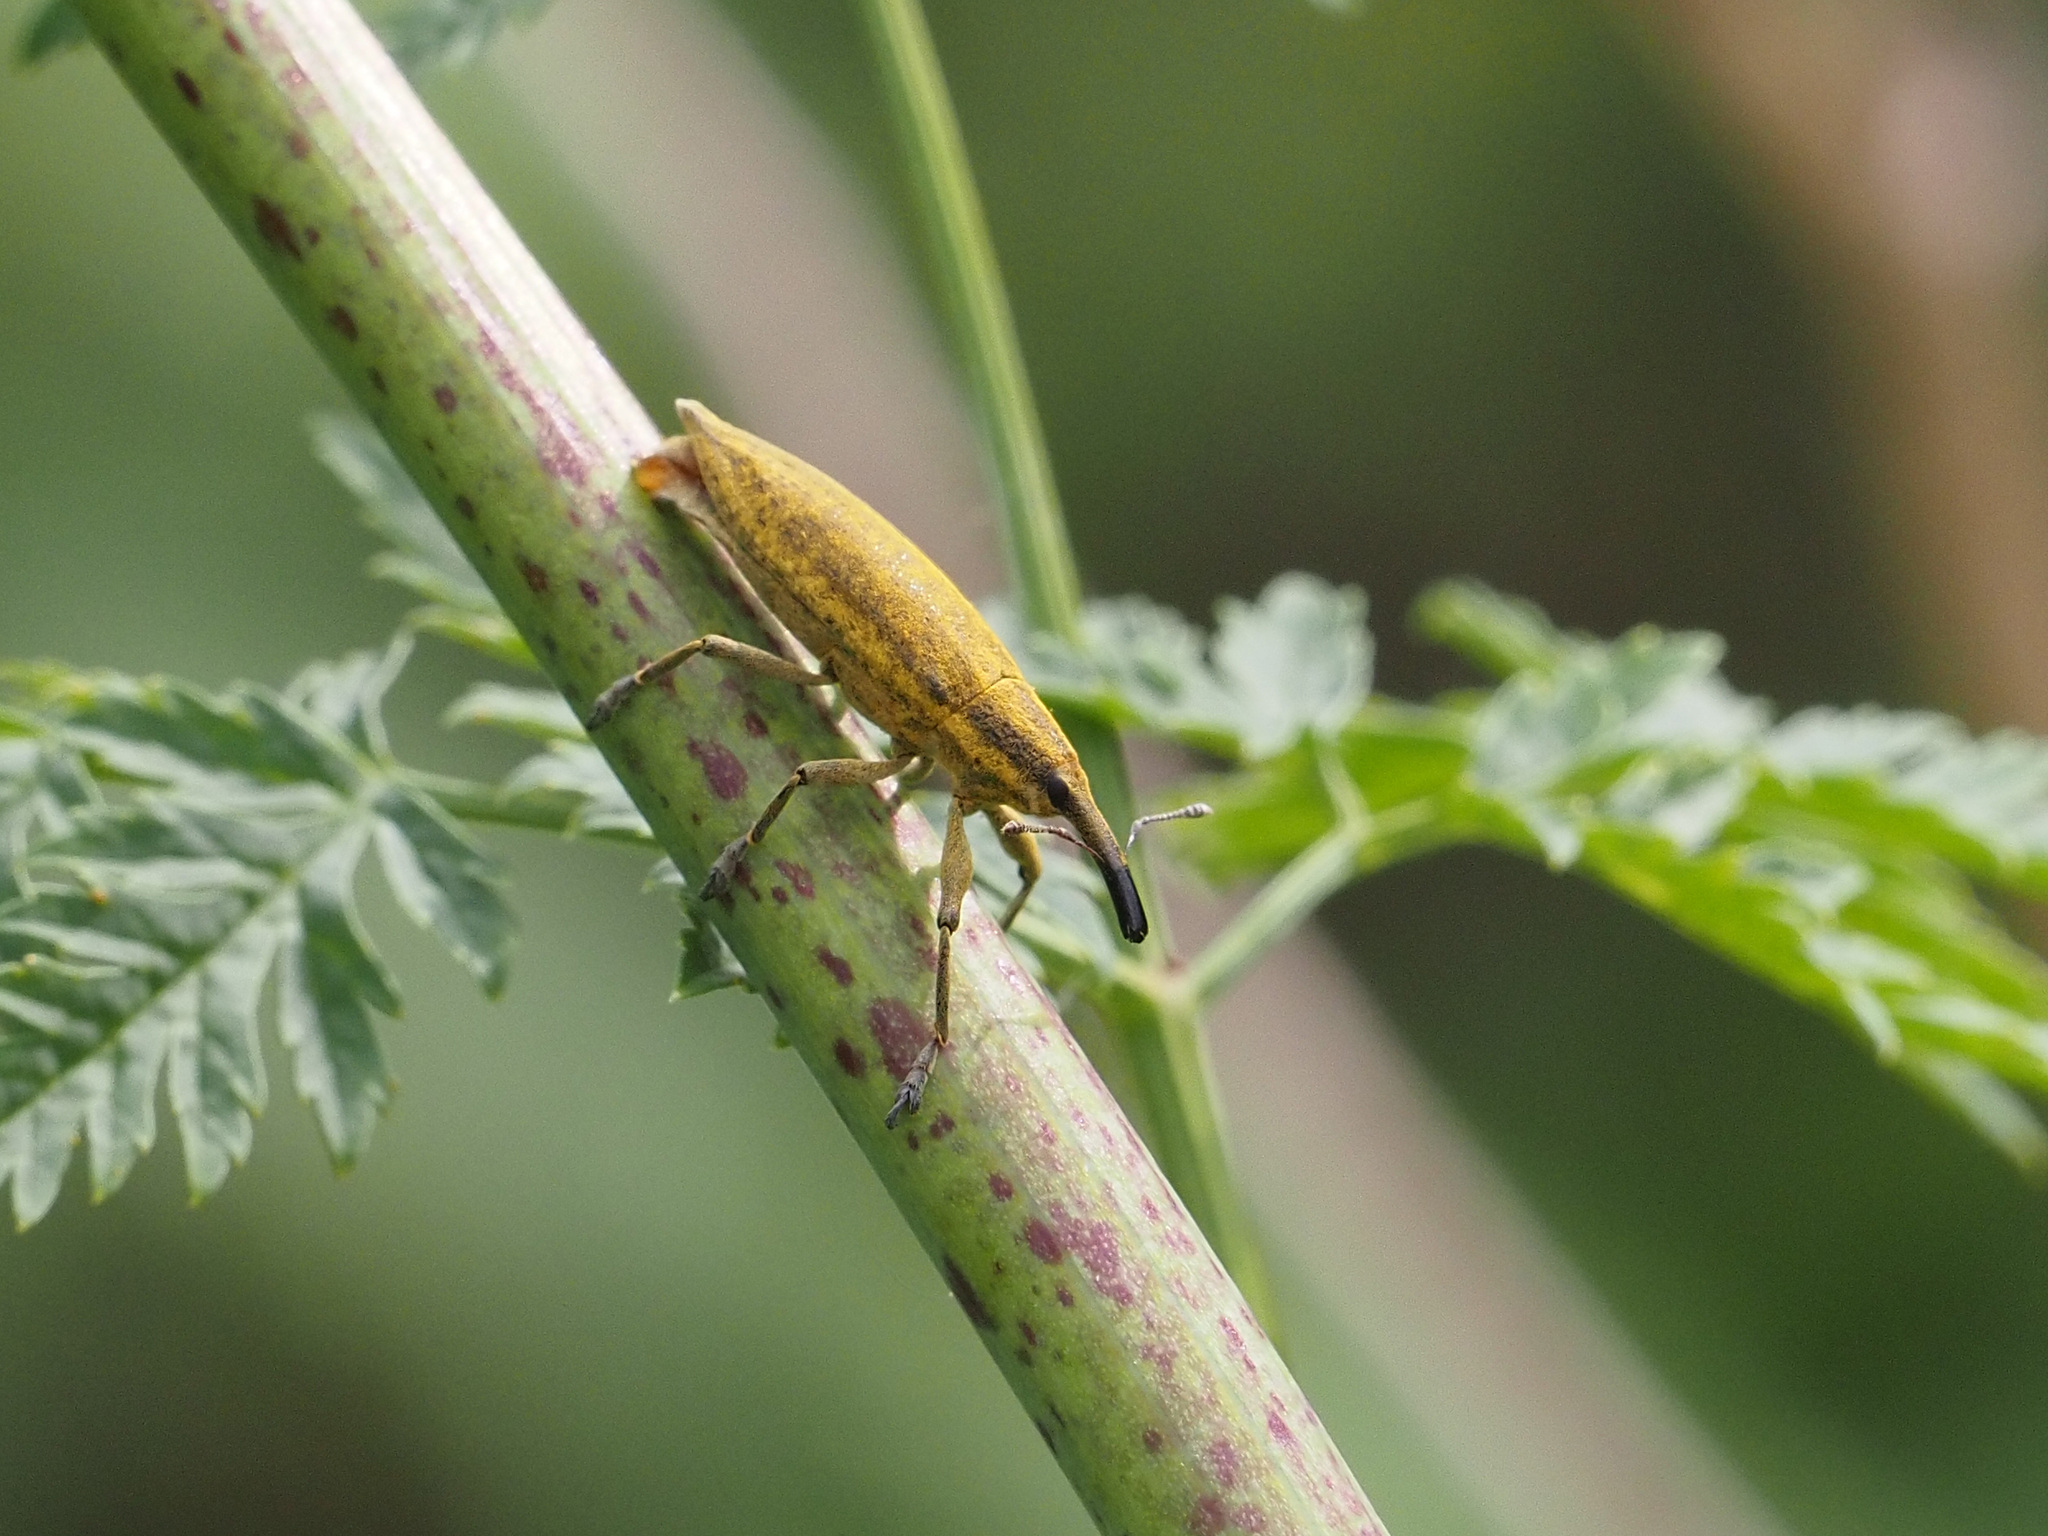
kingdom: Animalia
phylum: Arthropoda
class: Insecta
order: Coleoptera
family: Curculionidae
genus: Lixus
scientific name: Lixus iridis
